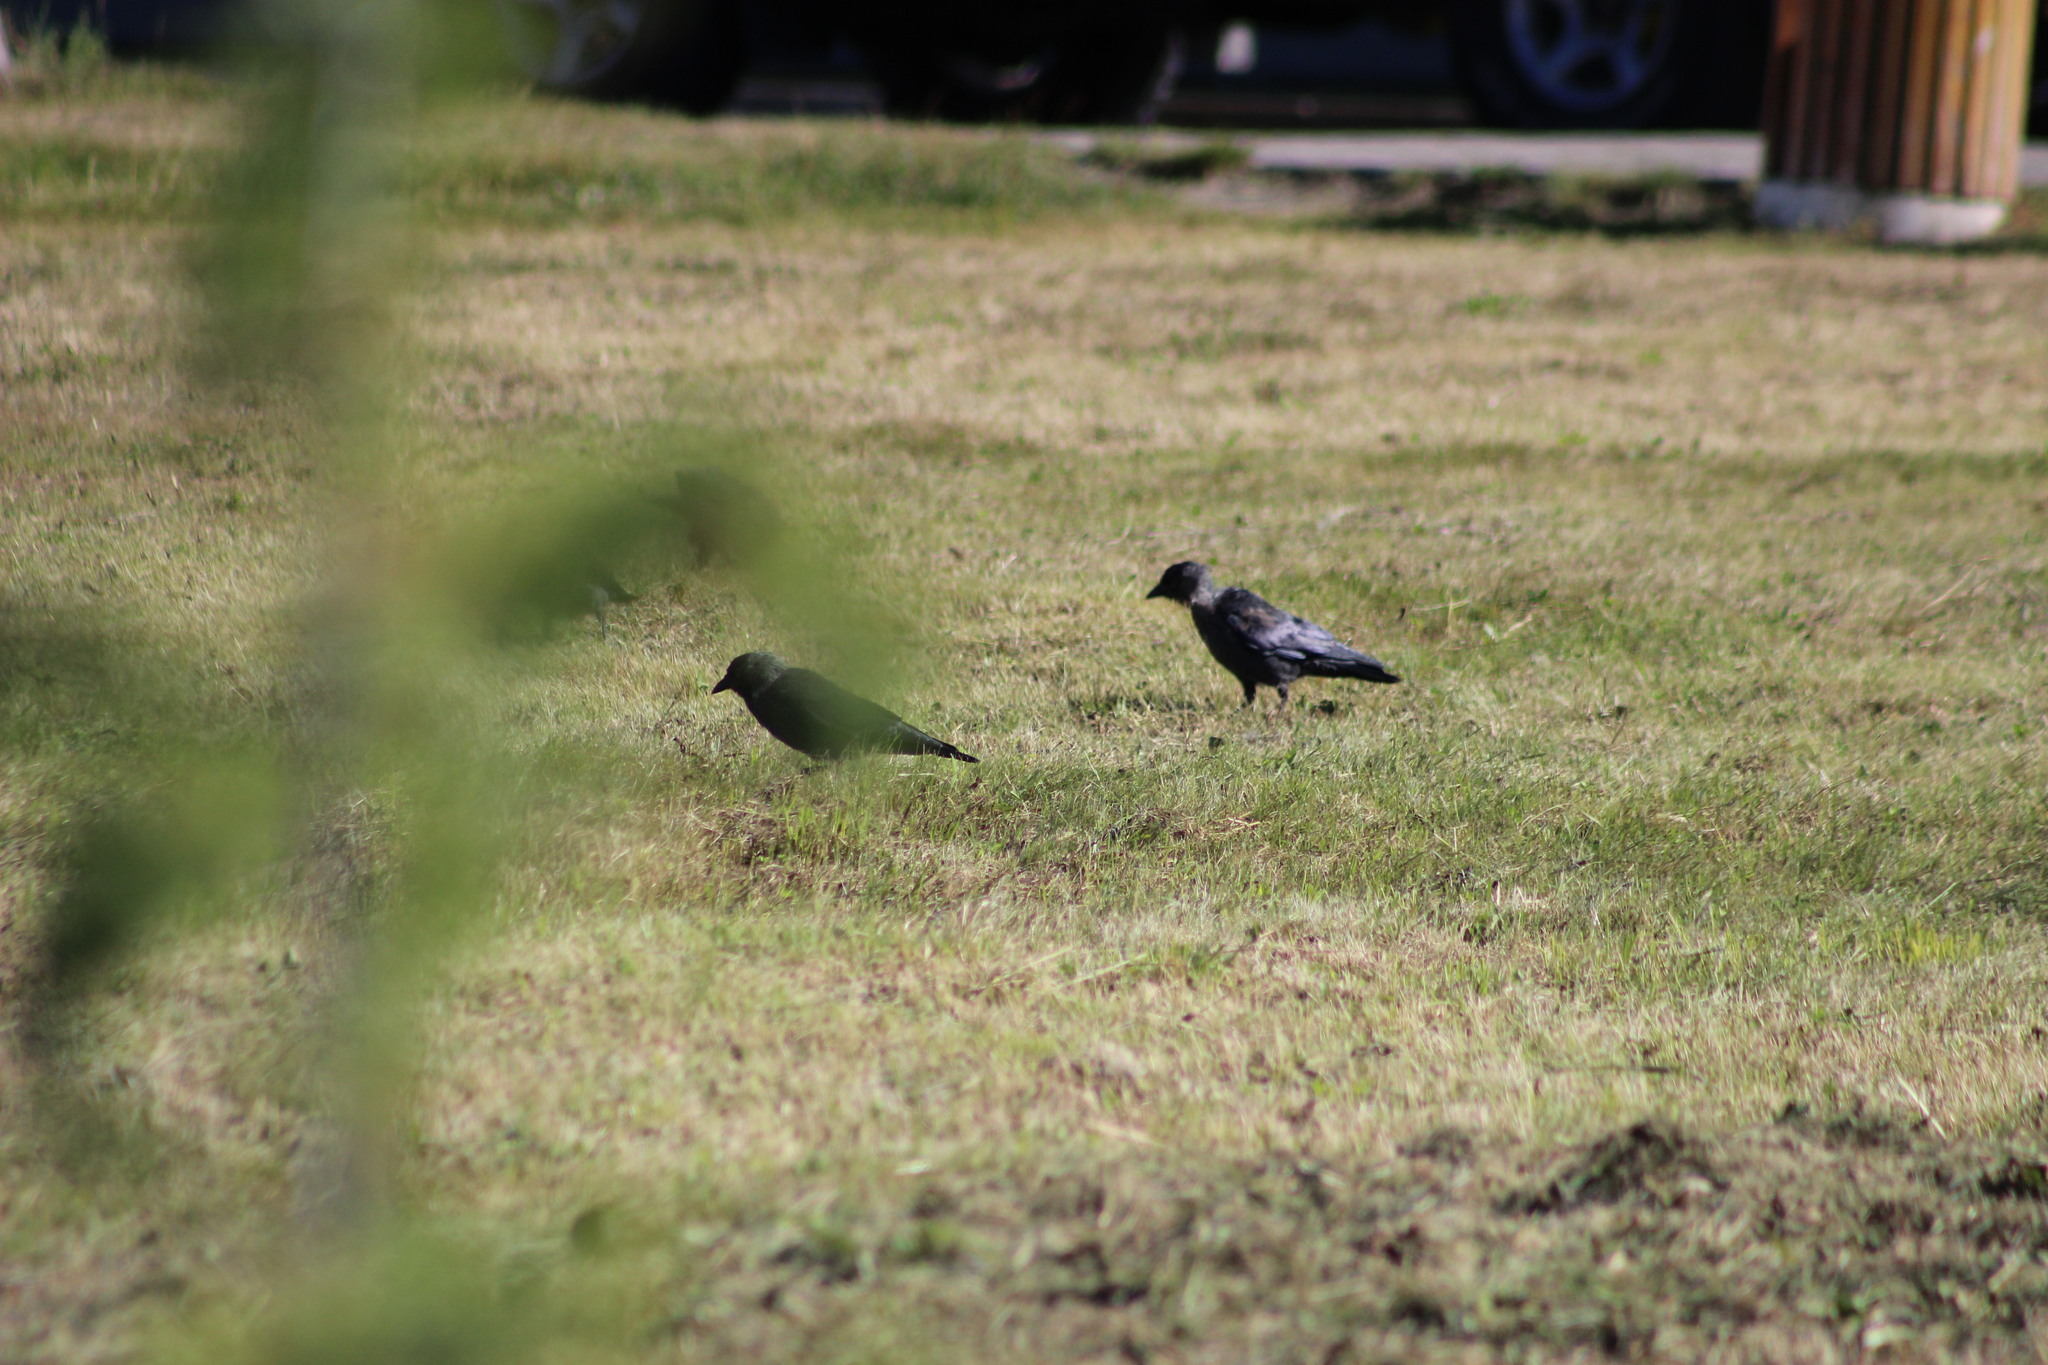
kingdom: Animalia
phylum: Chordata
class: Aves
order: Passeriformes
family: Corvidae
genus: Coloeus
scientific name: Coloeus monedula
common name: Western jackdaw
